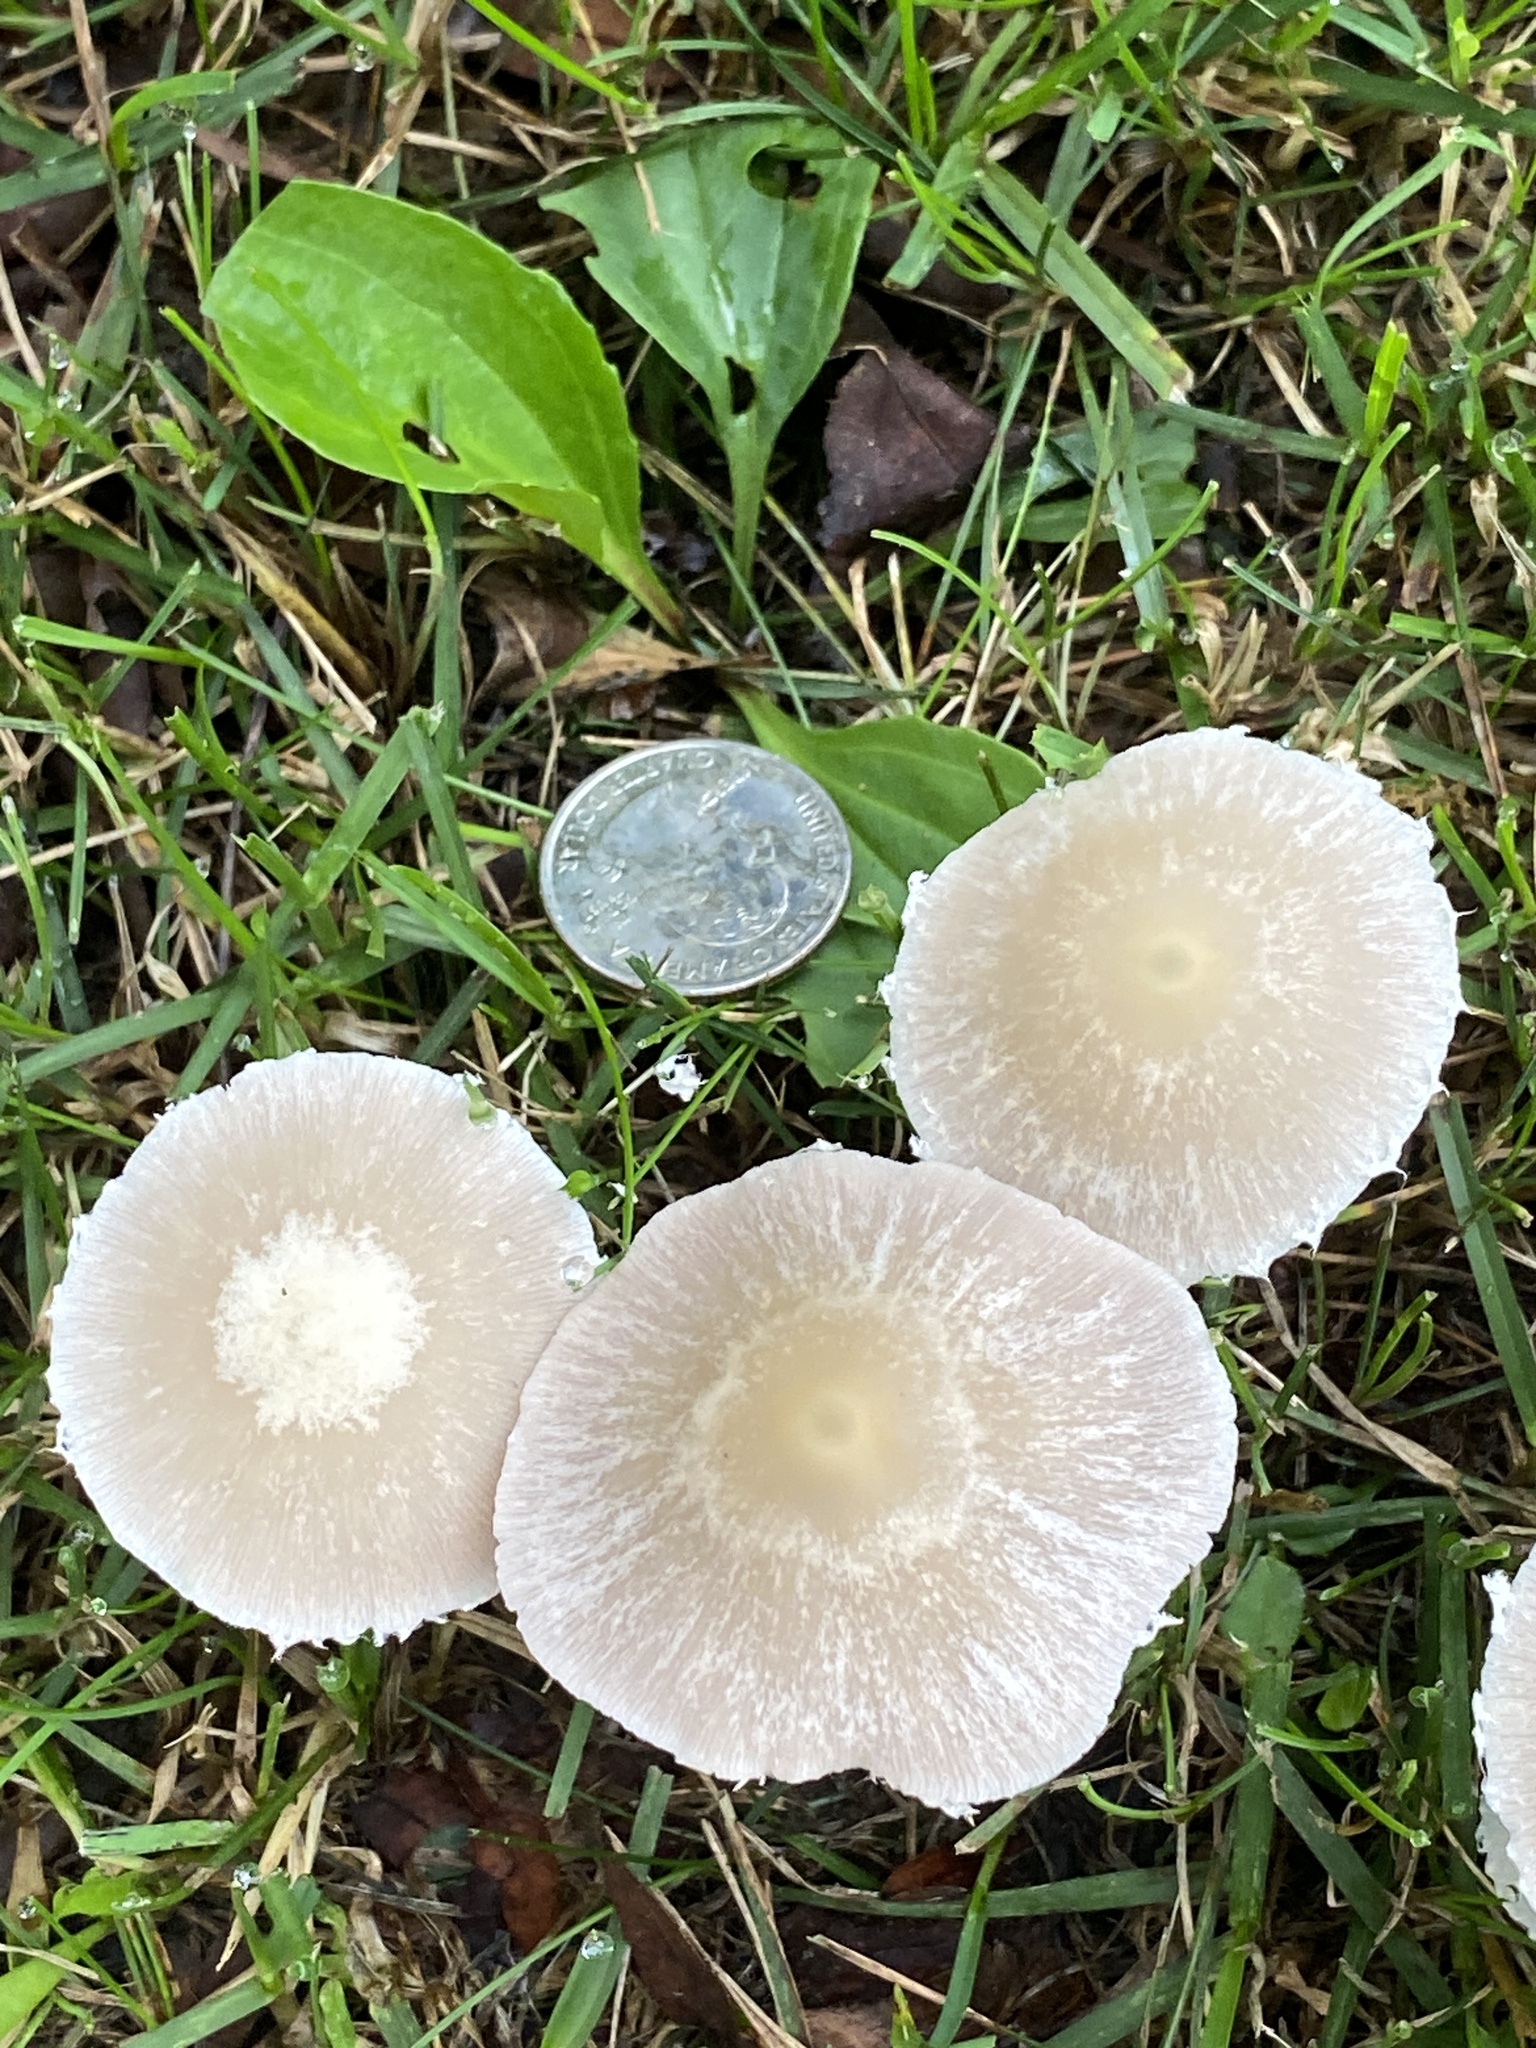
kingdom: Fungi
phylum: Basidiomycota
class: Agaricomycetes
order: Agaricales
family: Psathyrellaceae
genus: Candolleomyces
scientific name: Candolleomyces candolleanus
